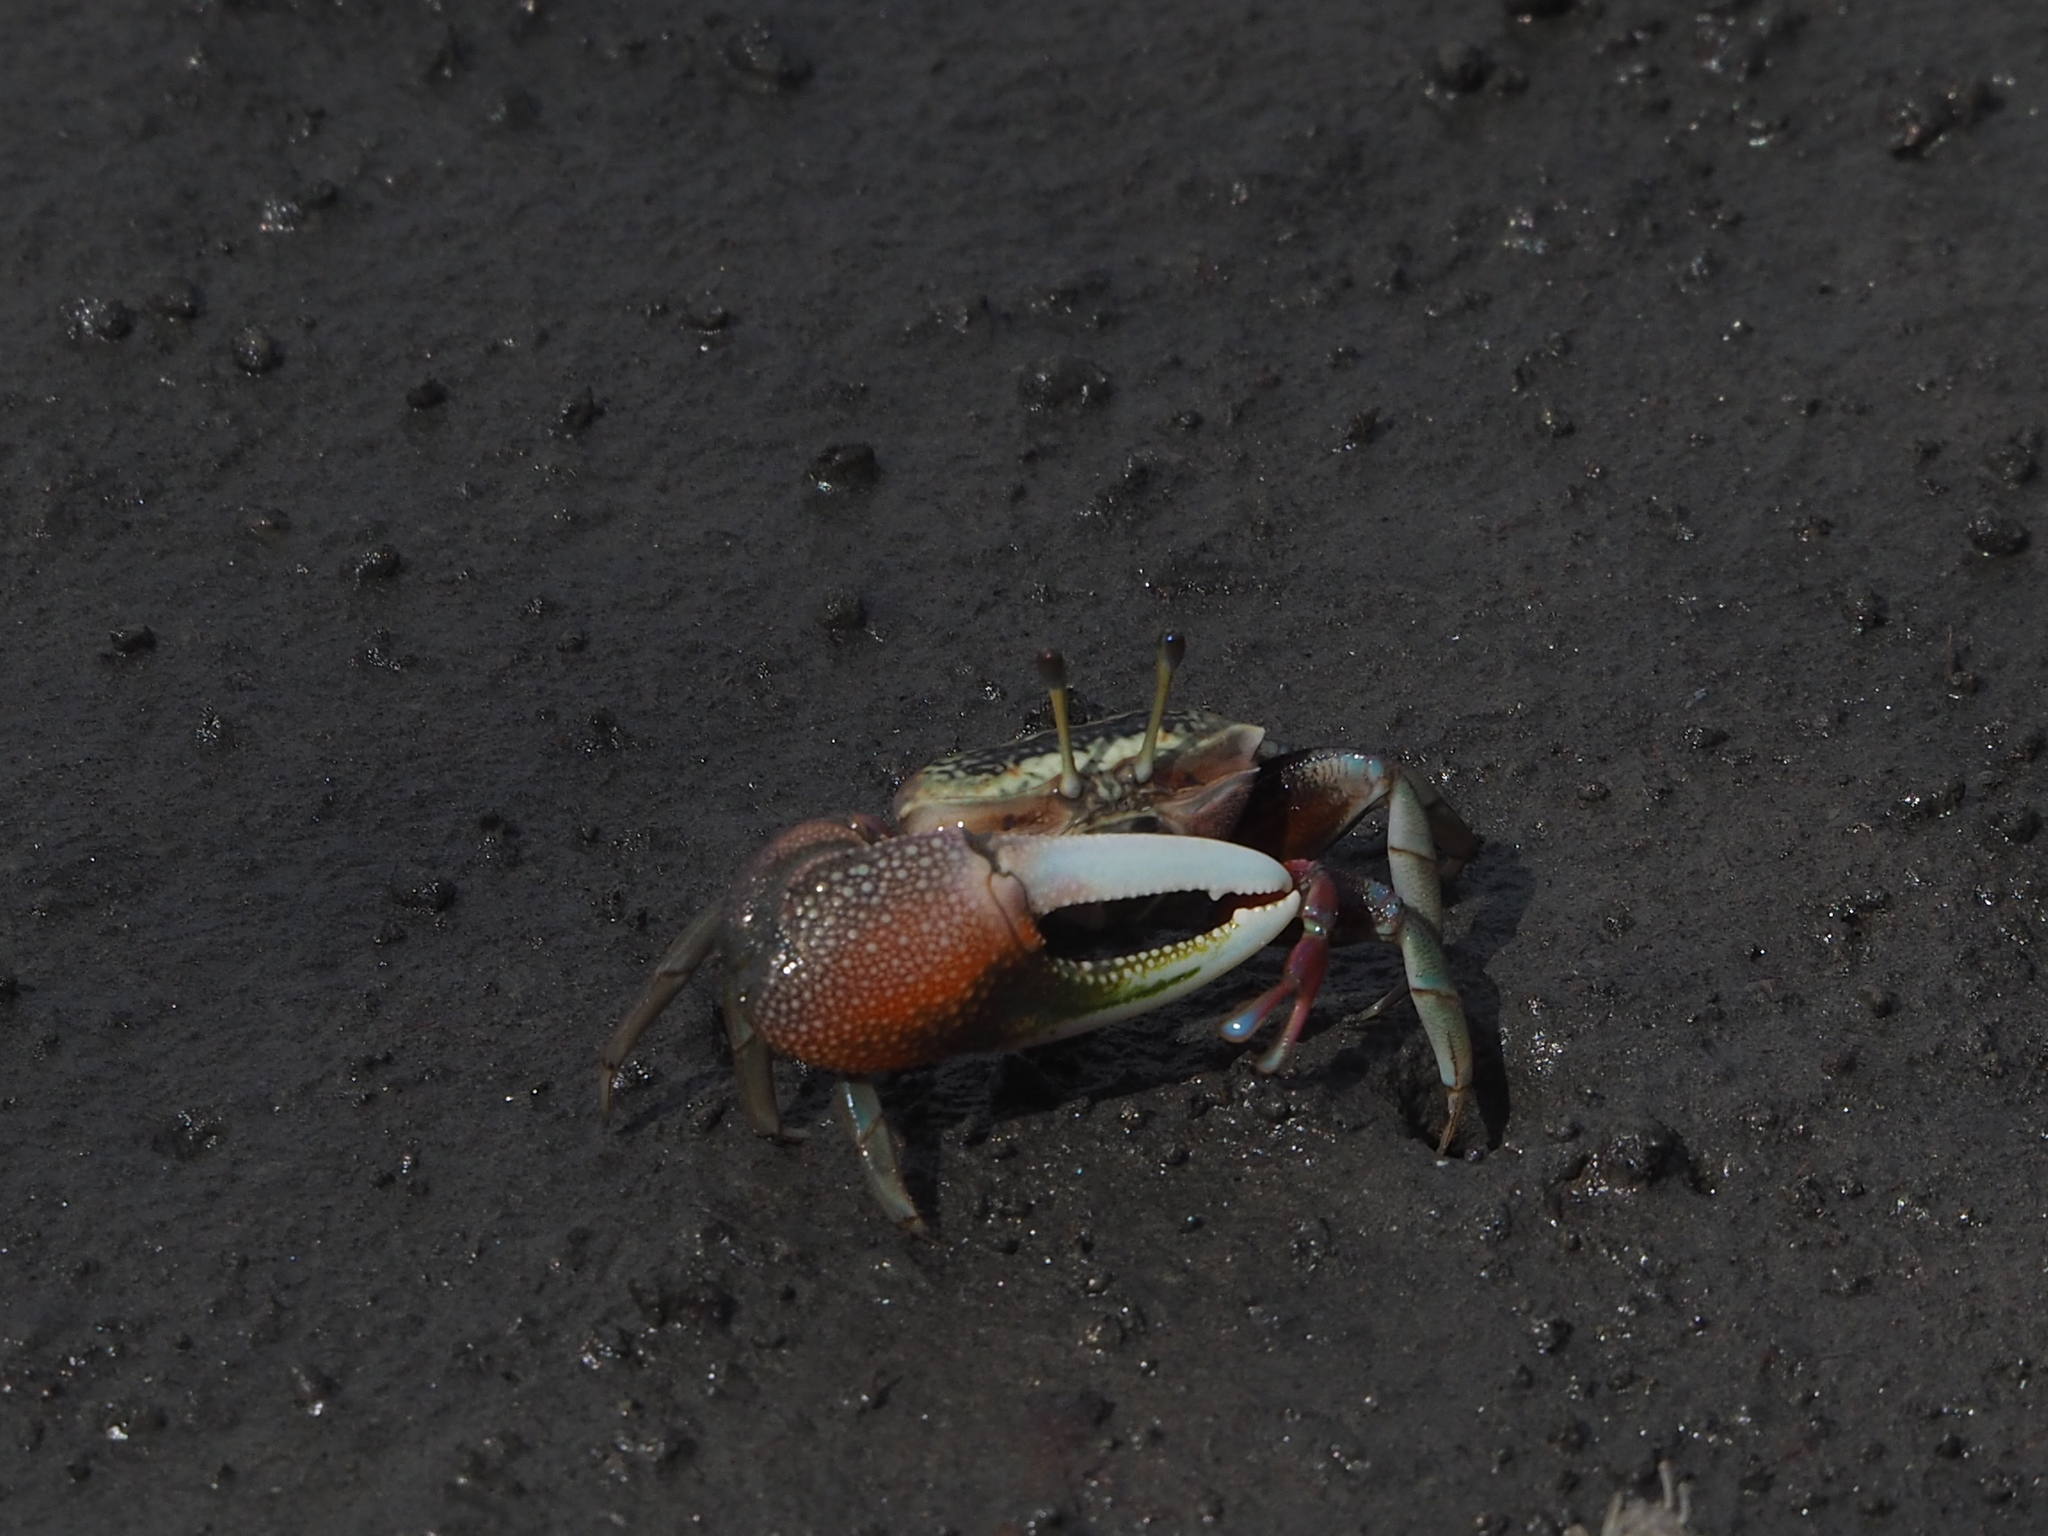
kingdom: Animalia
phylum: Arthropoda
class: Malacostraca
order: Decapoda
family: Ocypodidae
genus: Tubuca
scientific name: Tubuca arcuata
